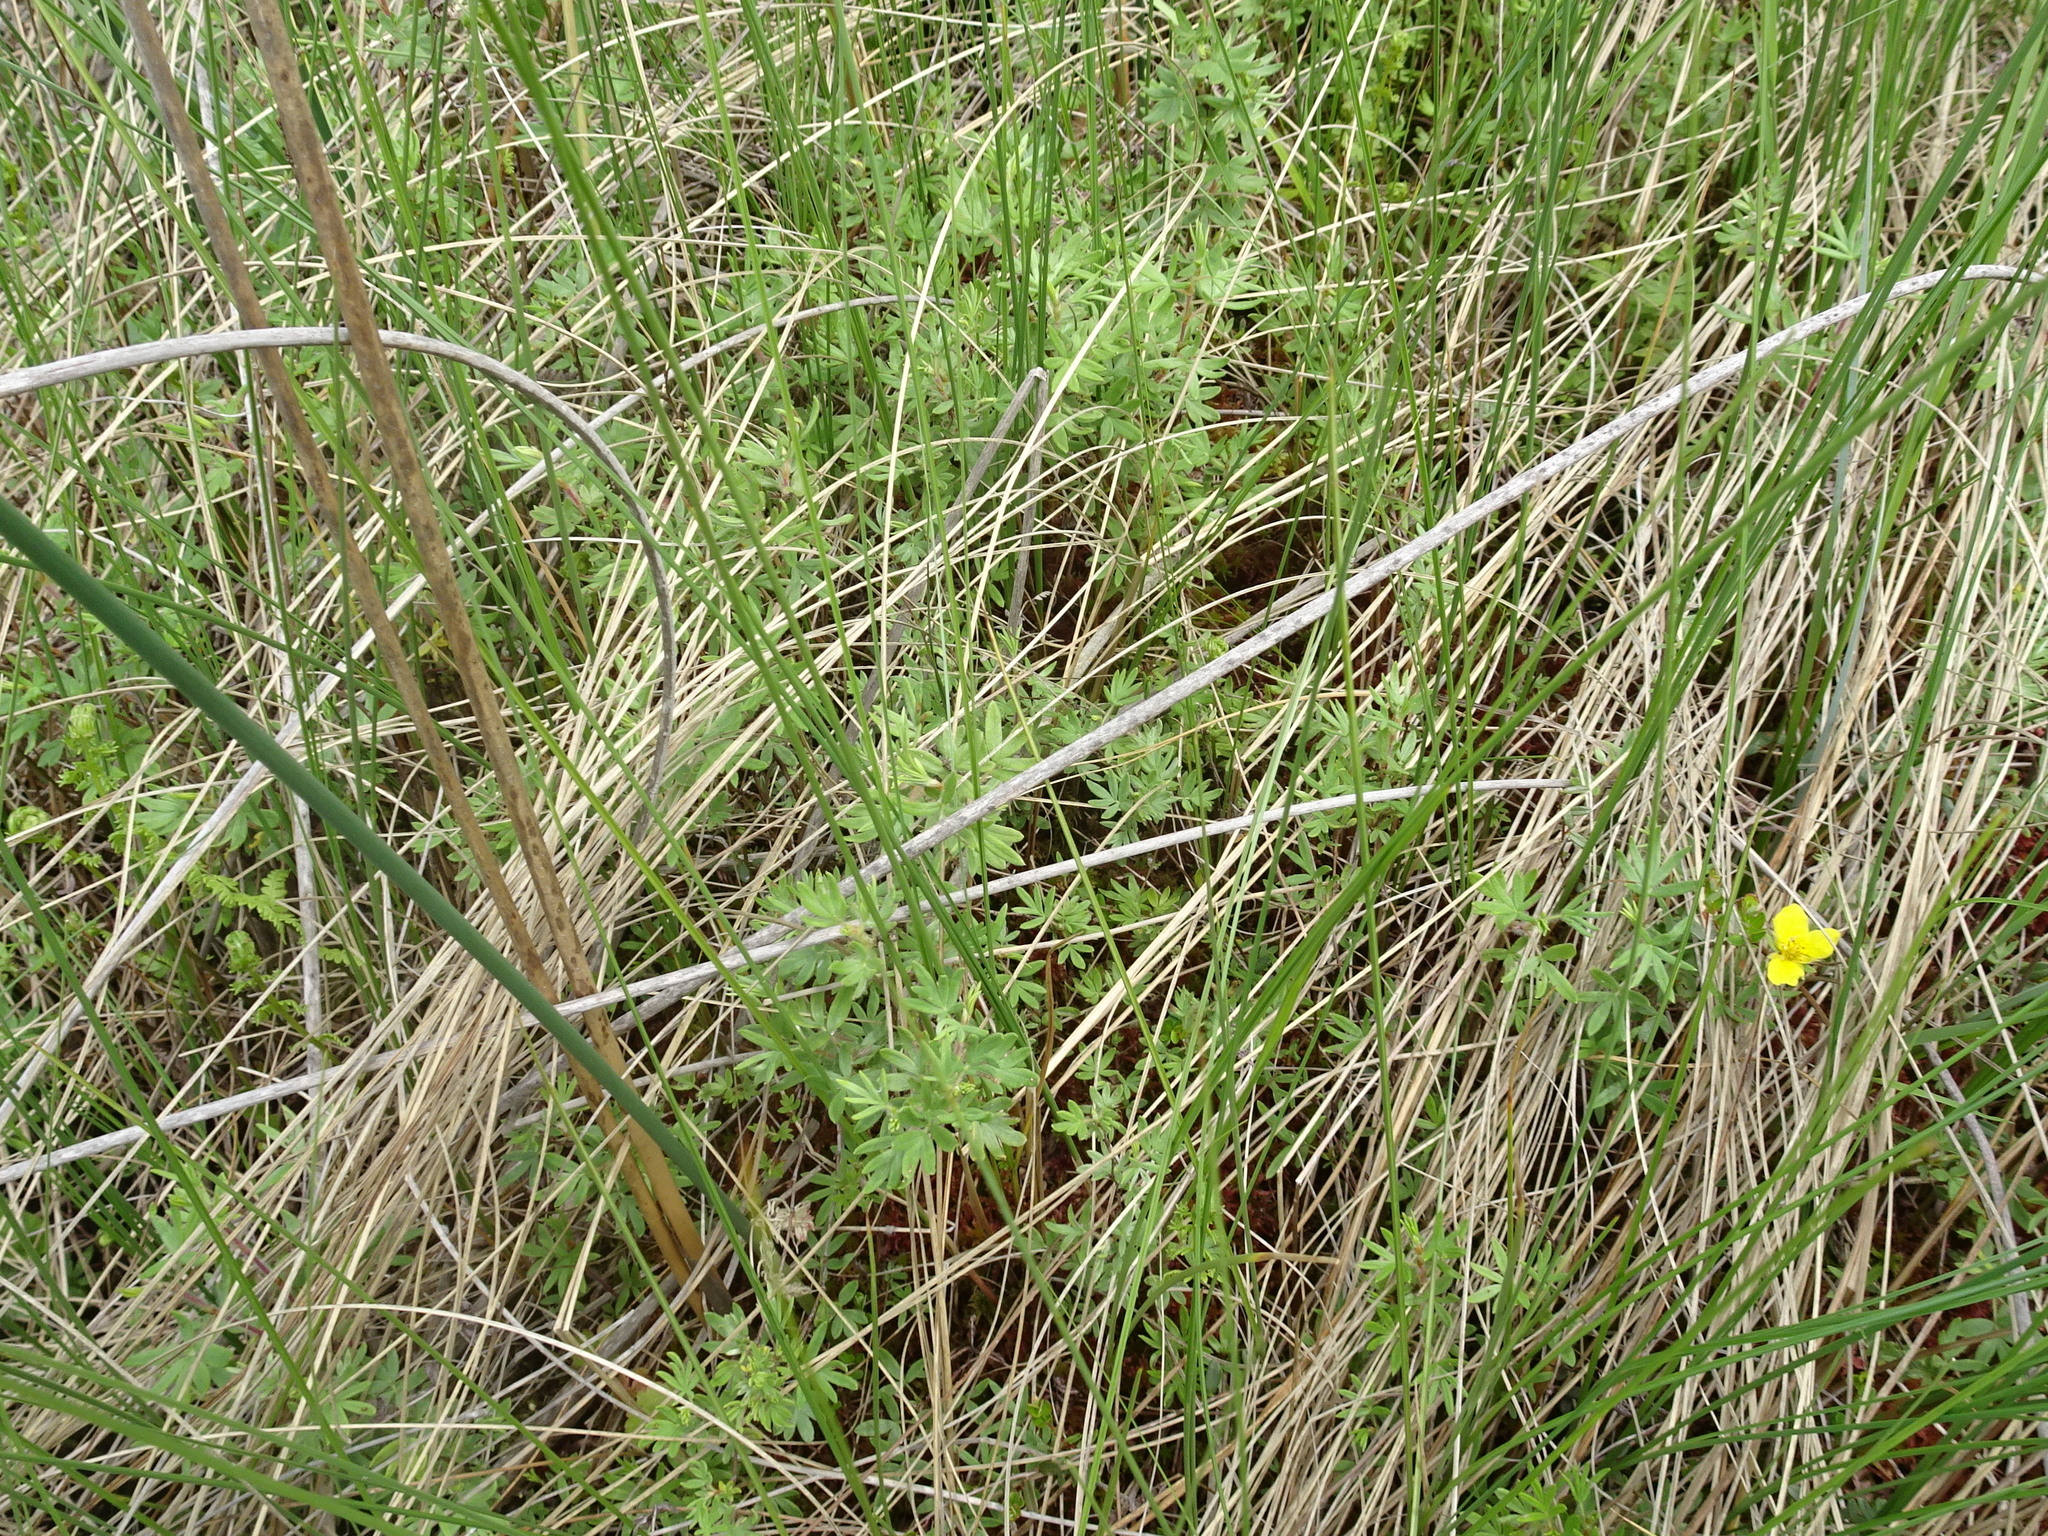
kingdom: Plantae
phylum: Tracheophyta
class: Magnoliopsida
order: Rosales
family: Rosaceae
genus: Dasiphora
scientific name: Dasiphora fruticosa
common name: Shrubby cinquefoil
